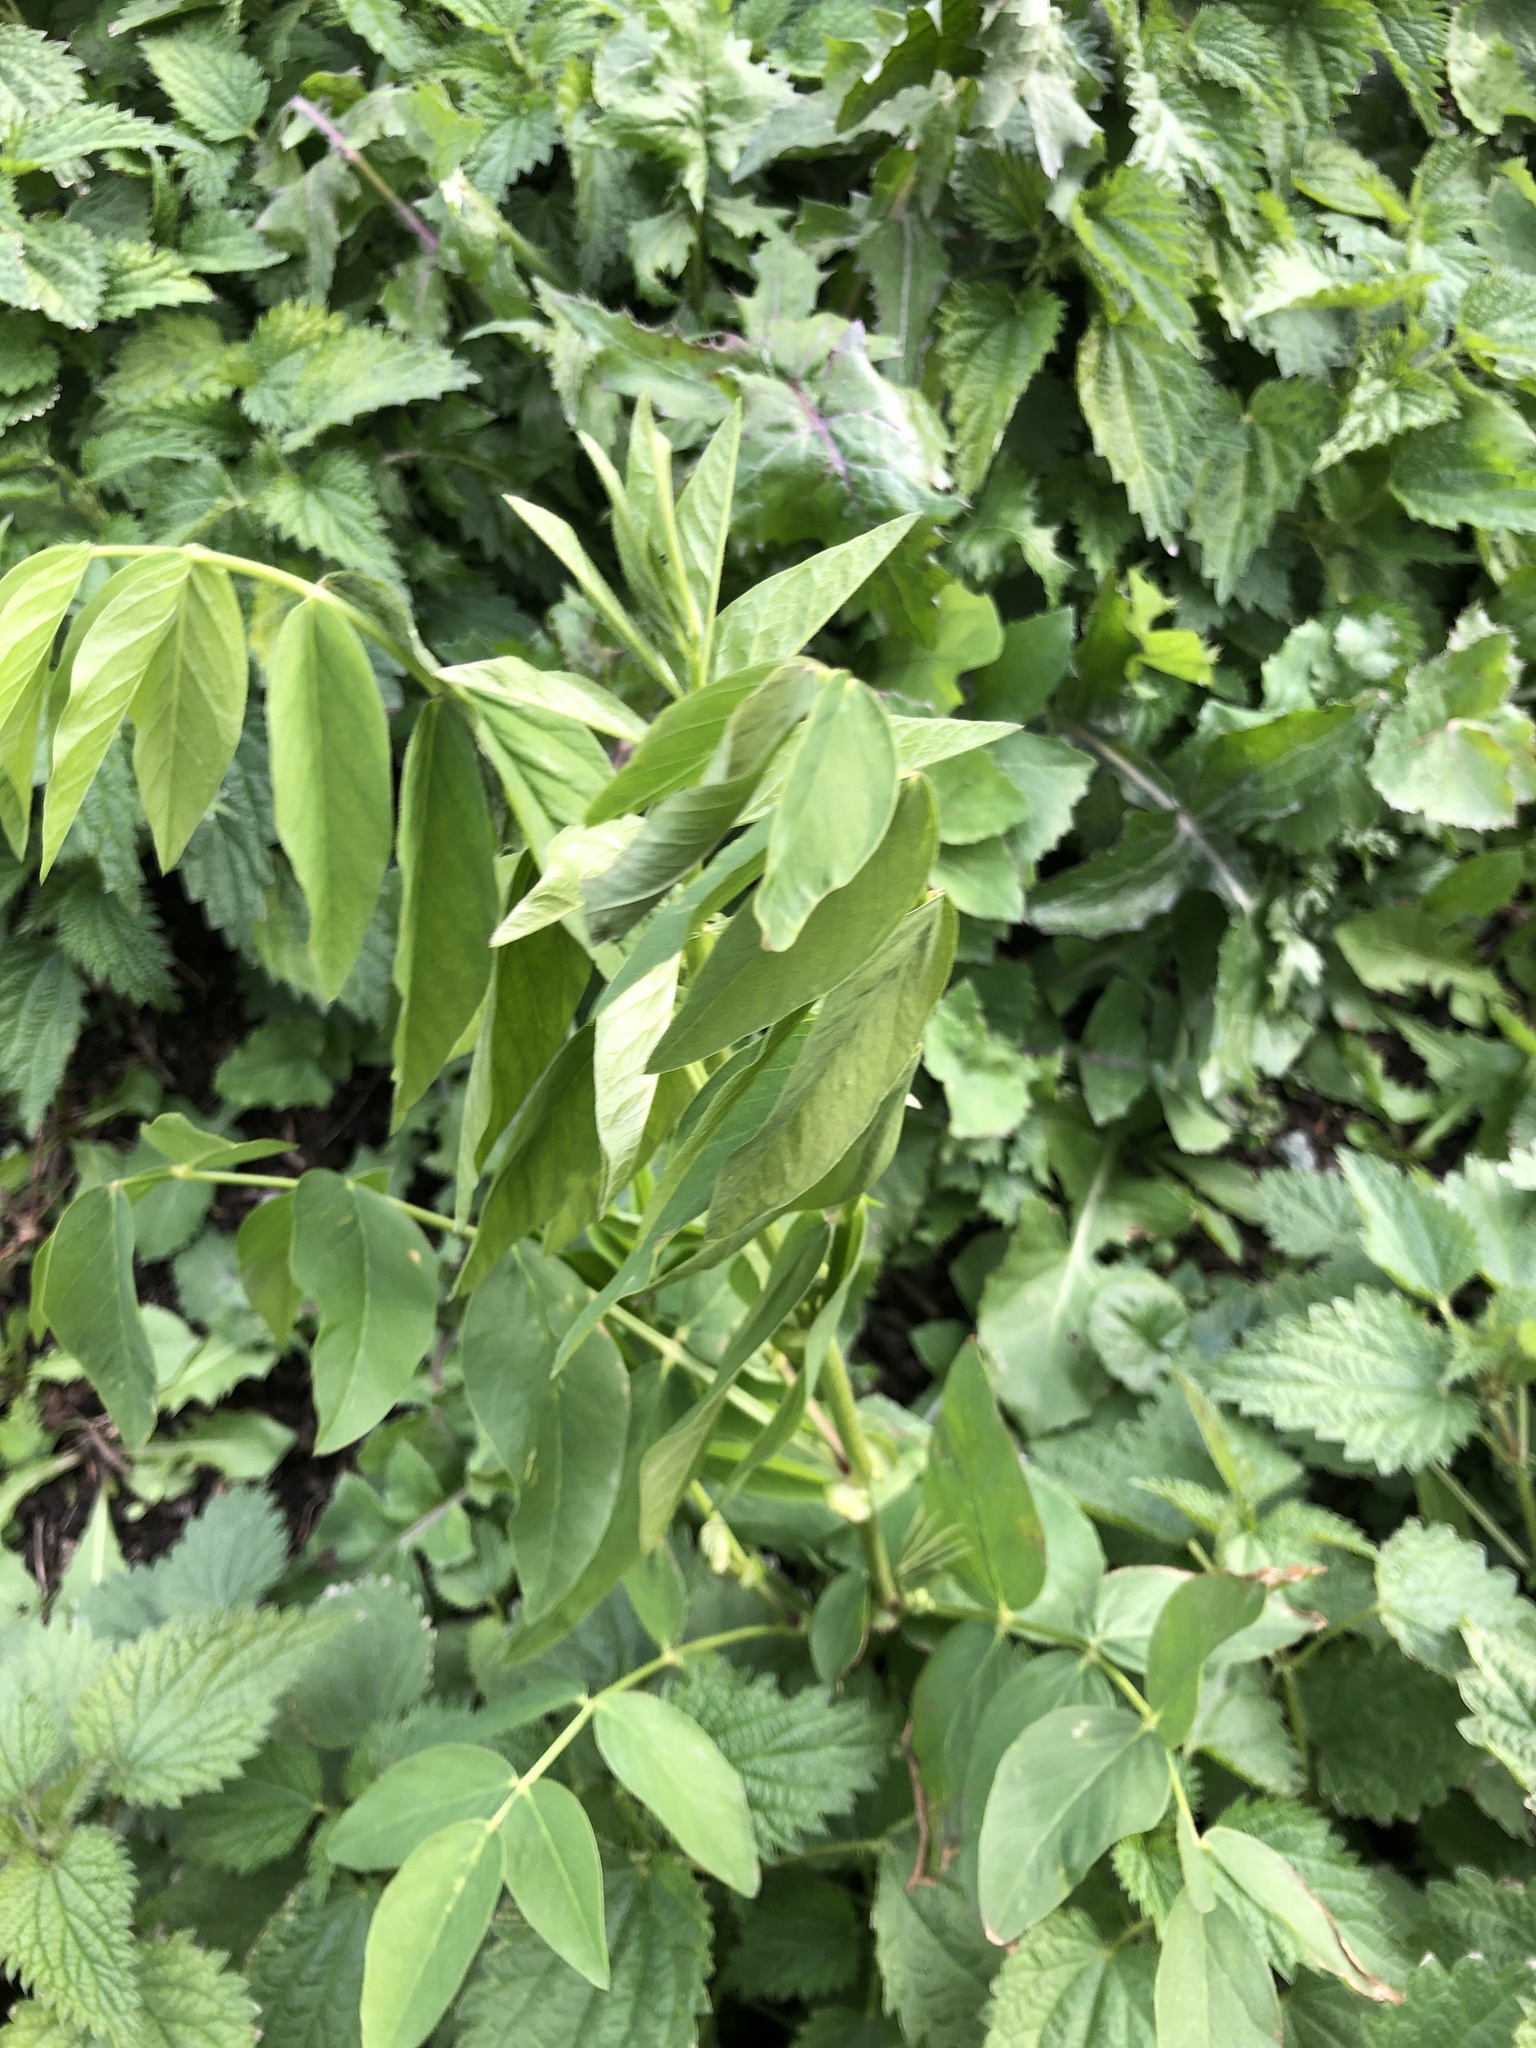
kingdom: Plantae
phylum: Tracheophyta
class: Magnoliopsida
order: Fabales
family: Fabaceae
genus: Galega
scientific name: Galega orientalis
